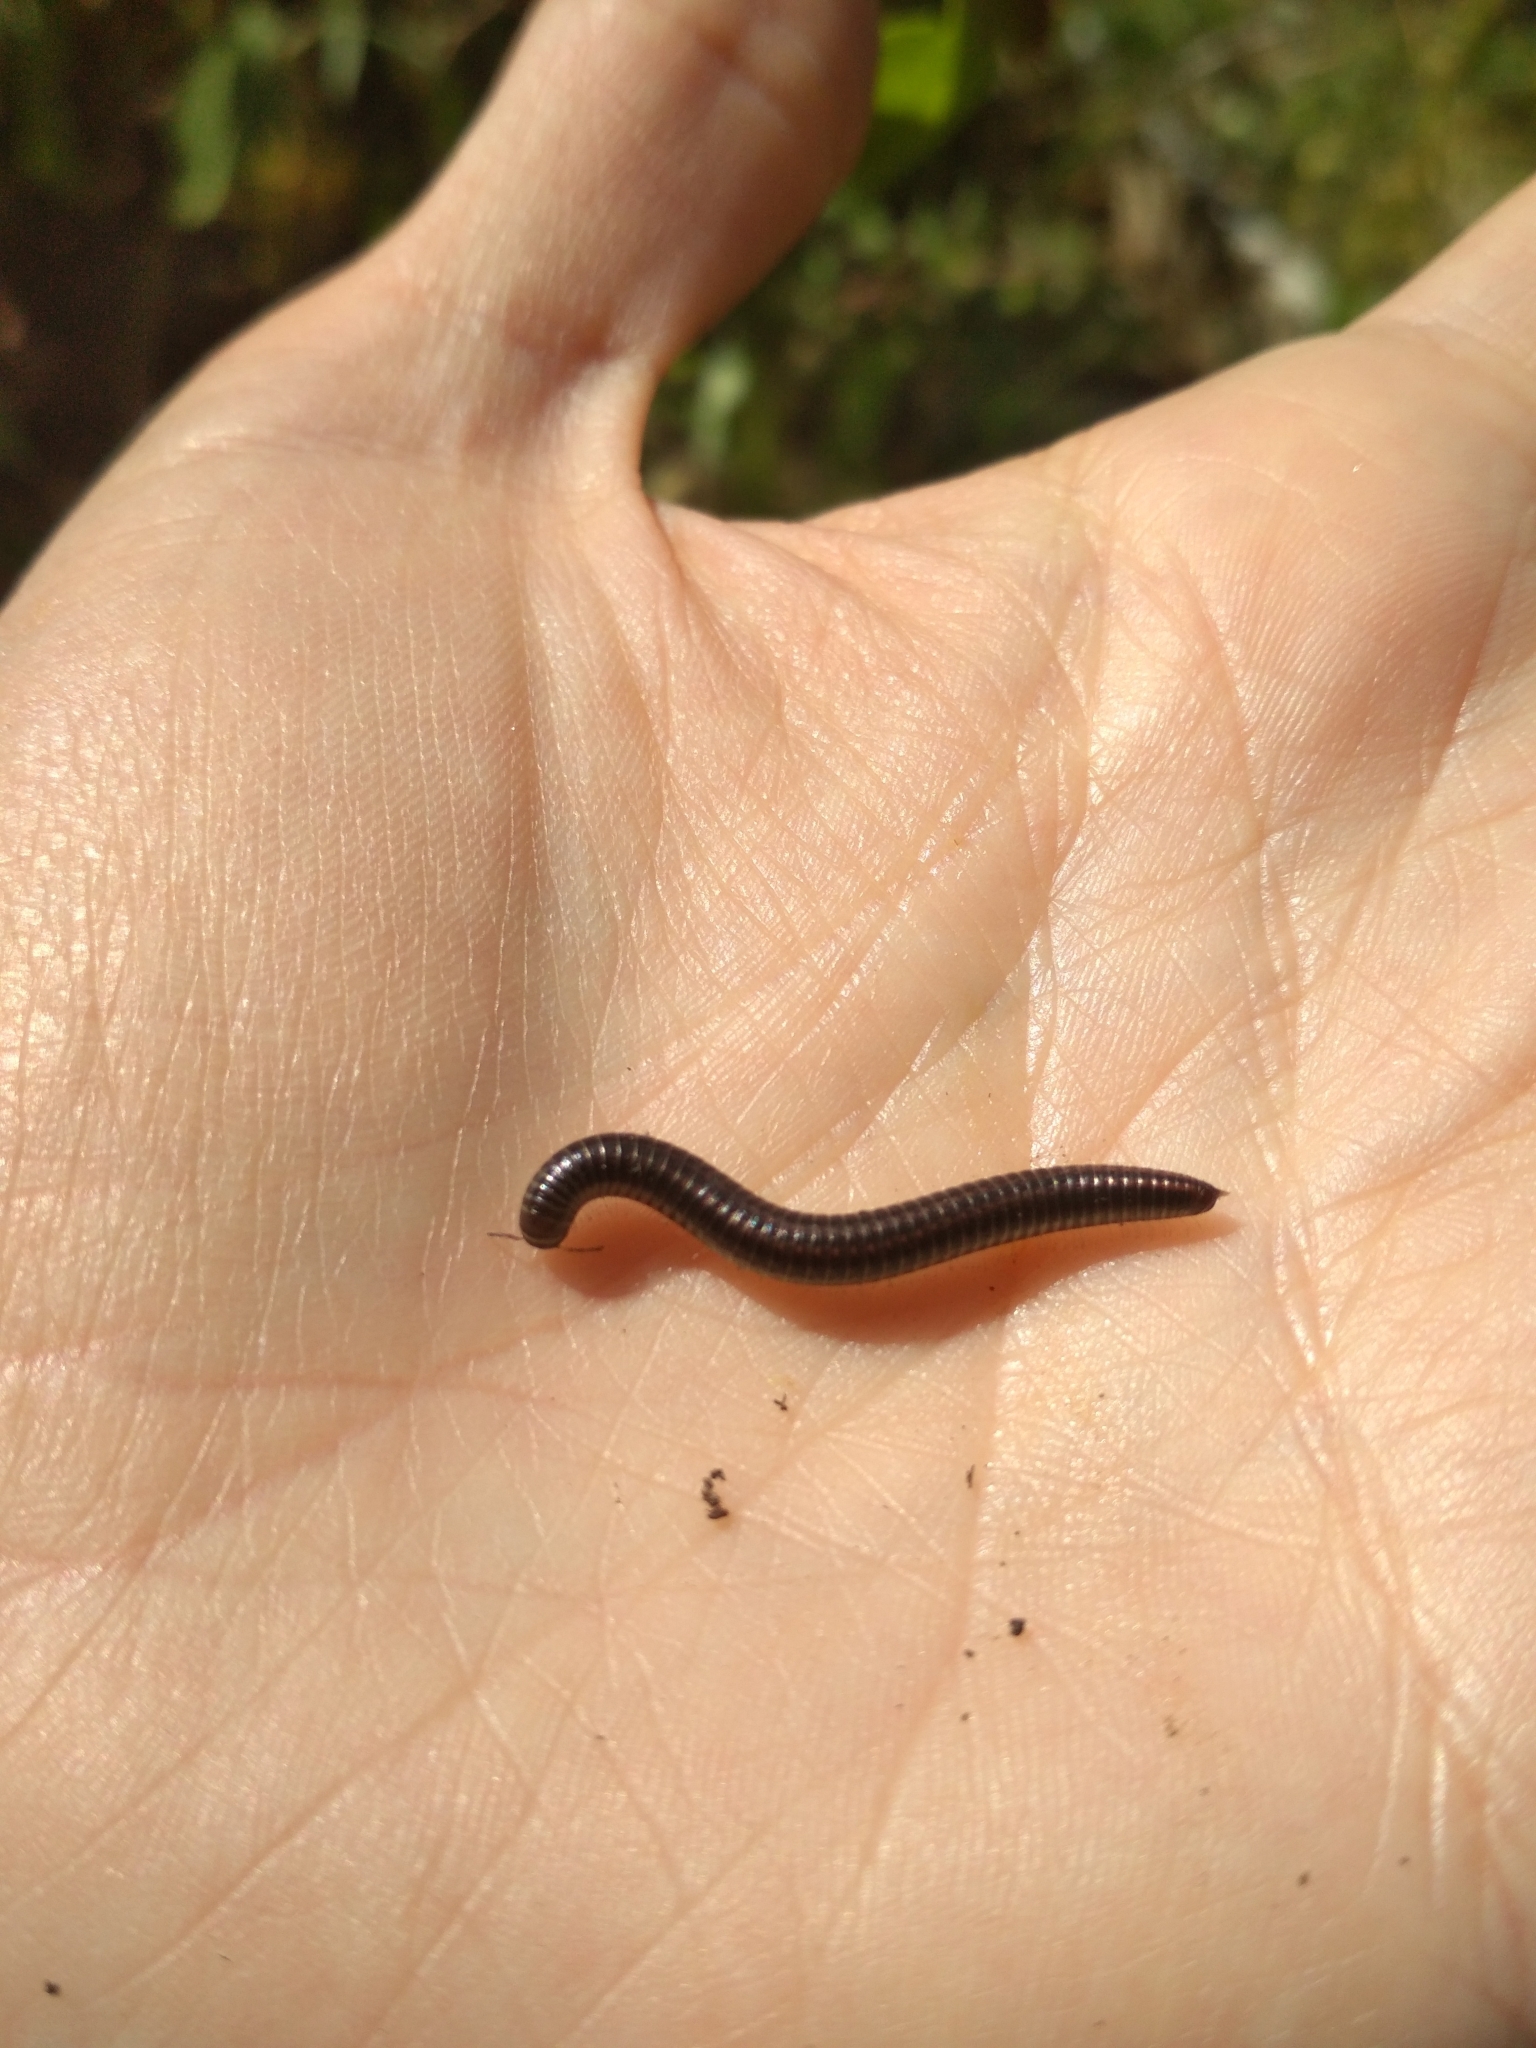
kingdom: Animalia
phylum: Arthropoda
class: Diplopoda
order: Julida
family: Julidae
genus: Ommatoiulus
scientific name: Ommatoiulus sabulosus
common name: Striped millipede
